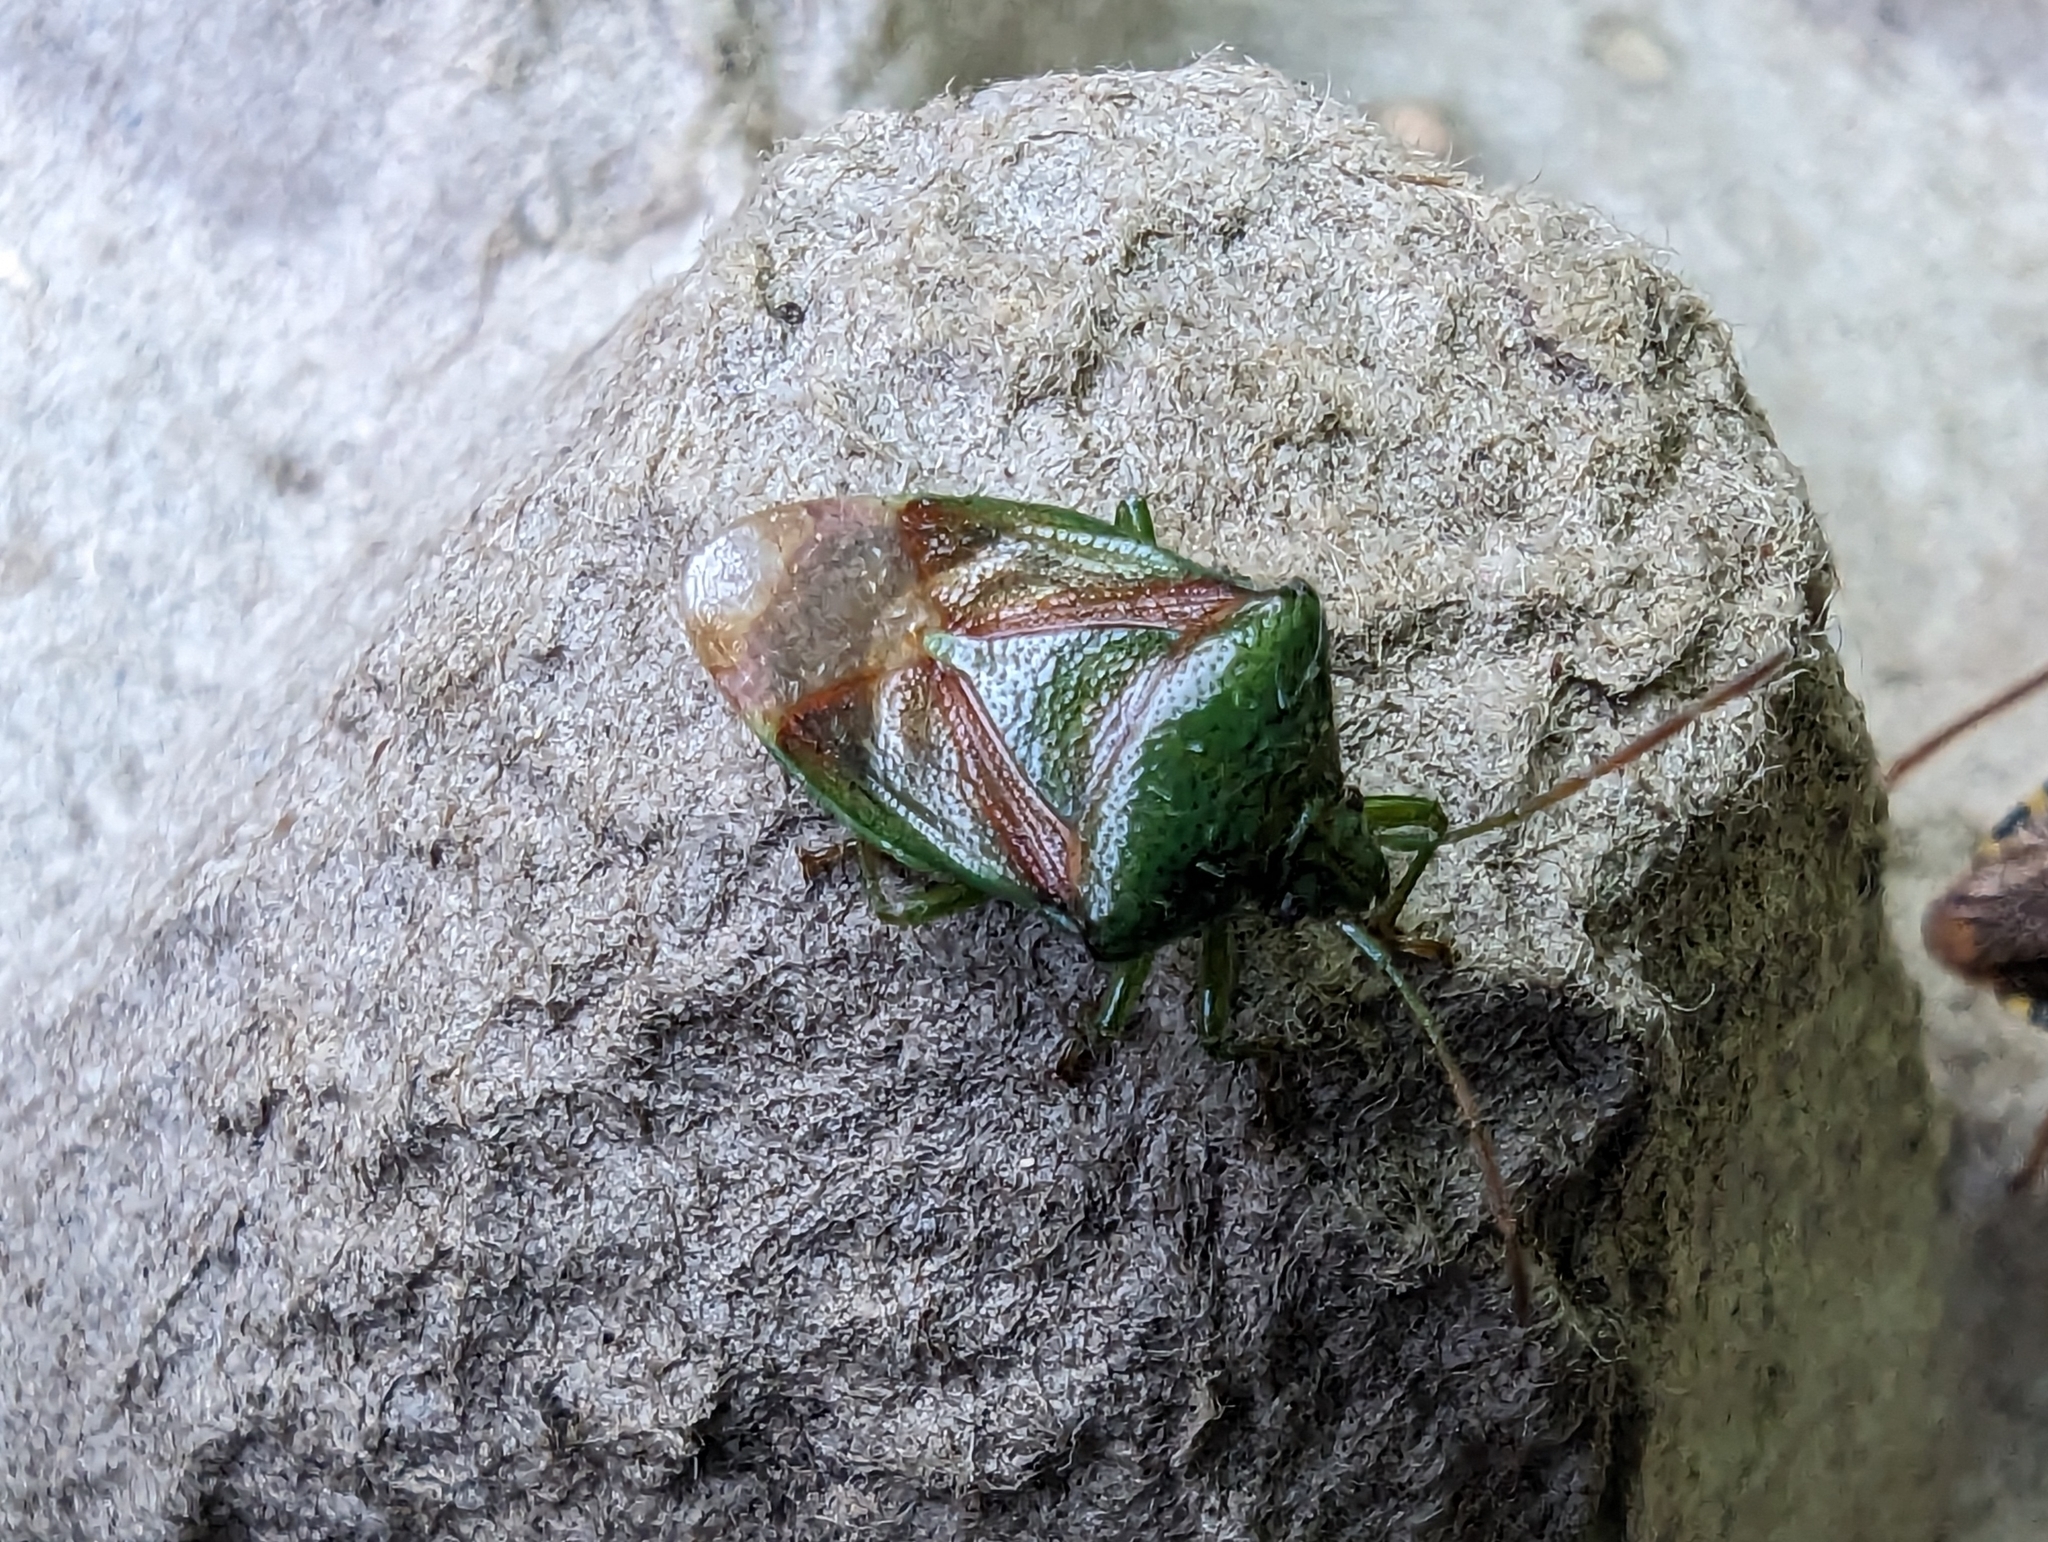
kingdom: Animalia
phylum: Arthropoda
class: Insecta
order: Hemiptera
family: Acanthosomatidae
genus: Elasmostethus
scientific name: Elasmostethus interstinctus
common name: Birch shieldbug
